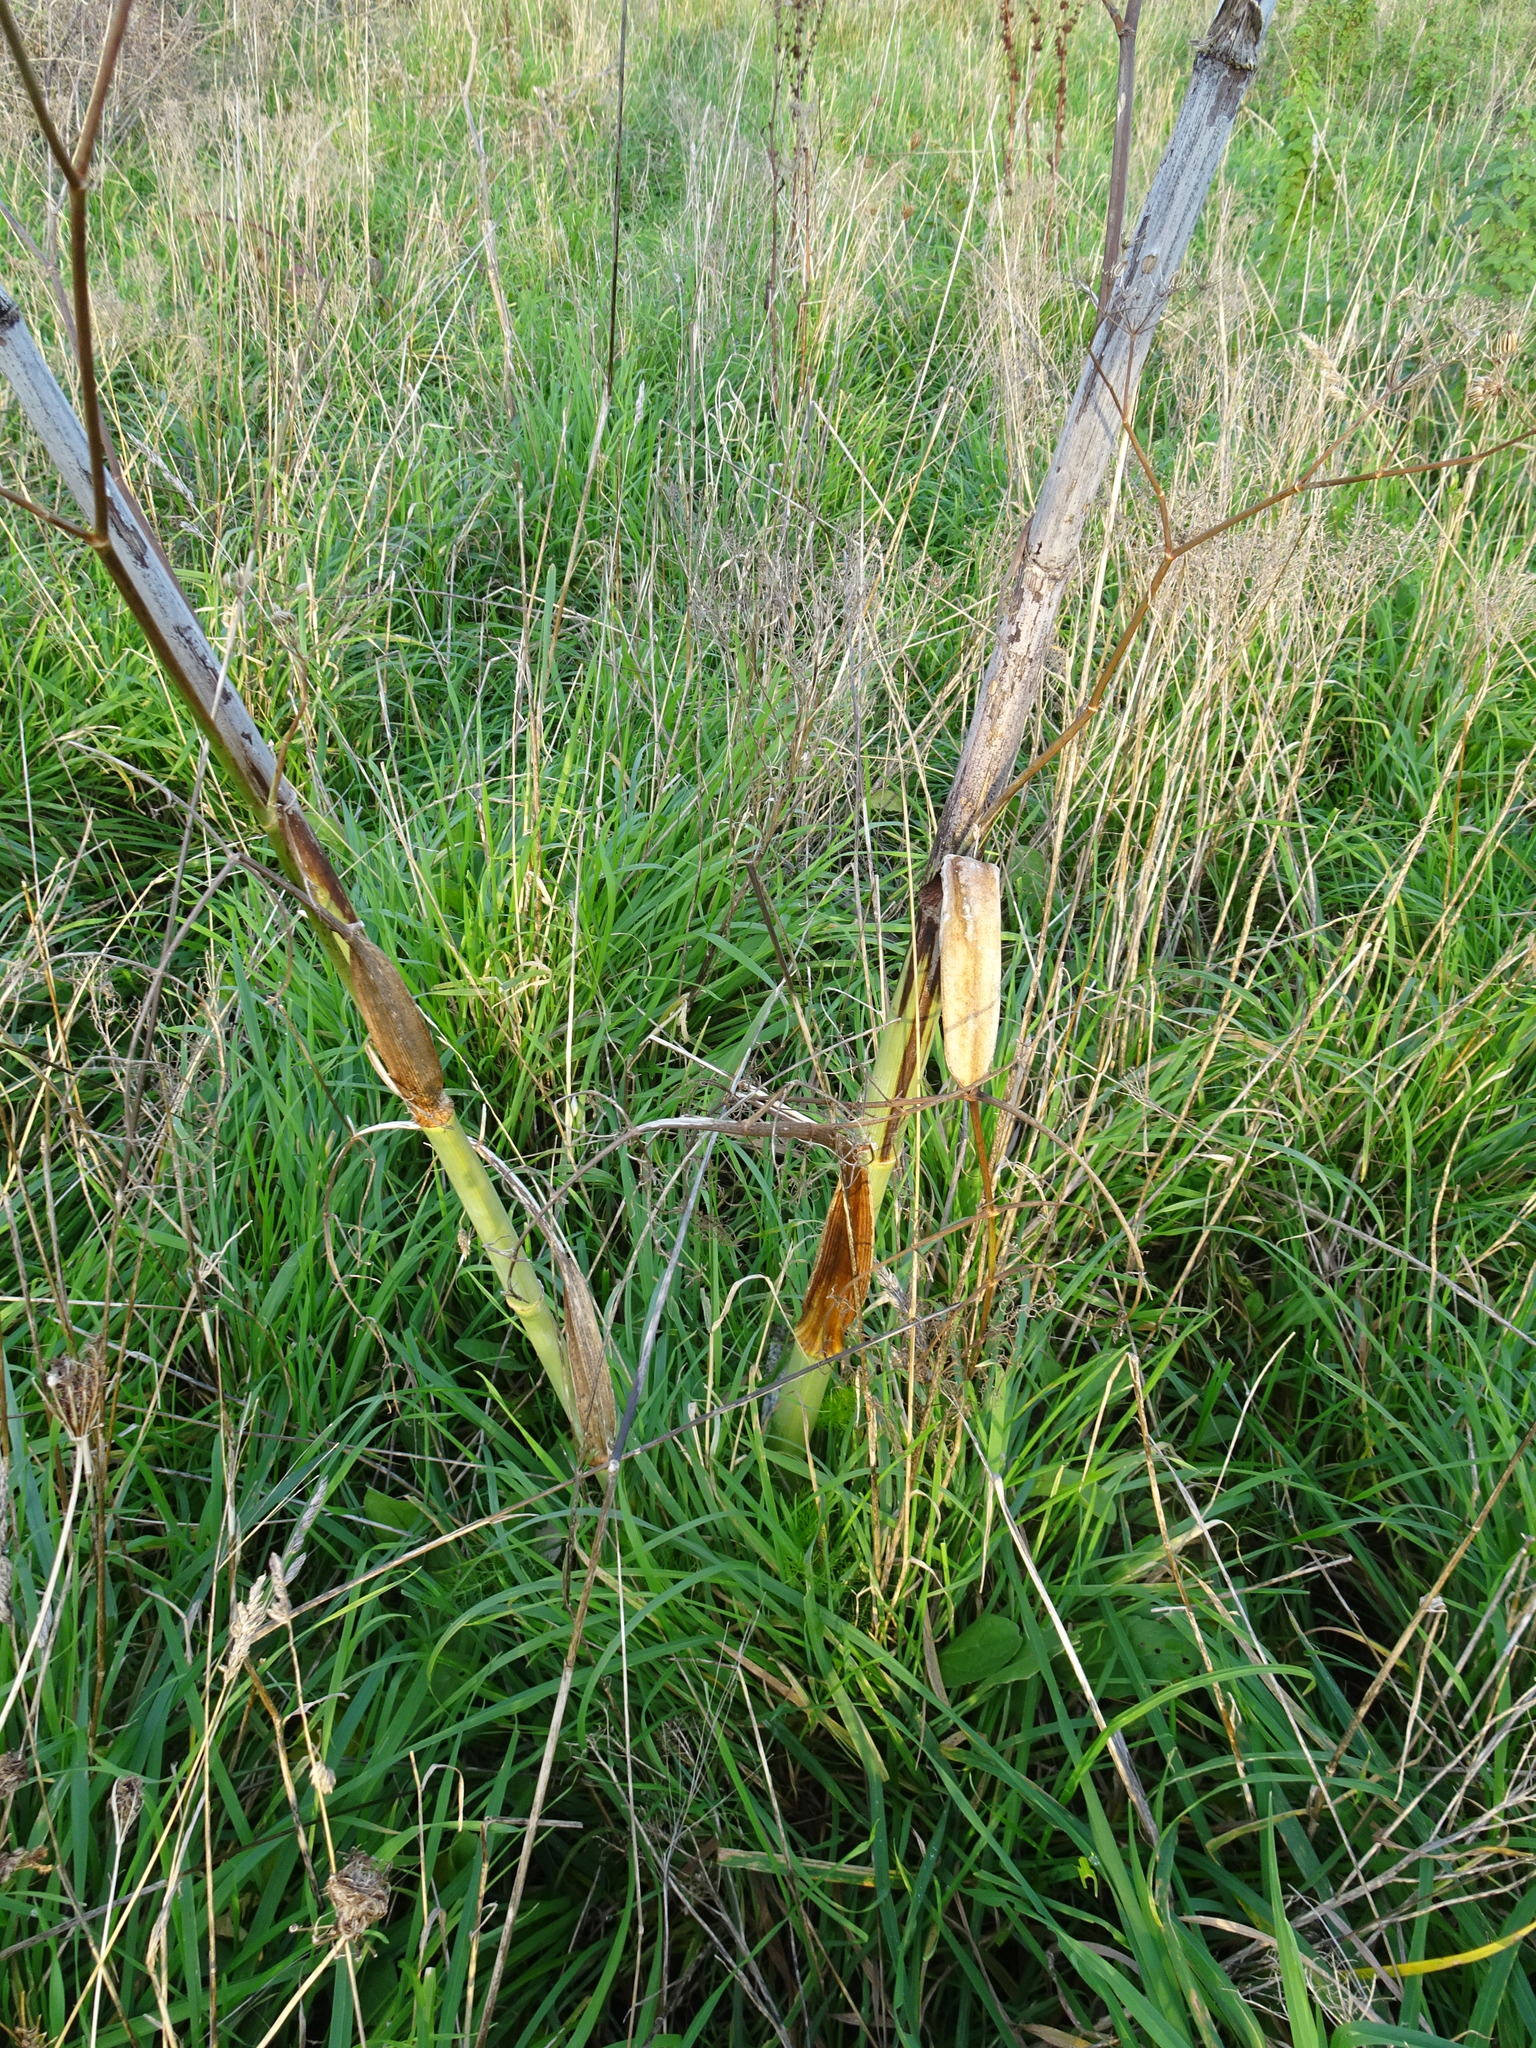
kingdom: Plantae
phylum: Tracheophyta
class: Magnoliopsida
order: Apiales
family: Apiaceae
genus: Foeniculum
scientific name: Foeniculum vulgare
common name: Fennel
